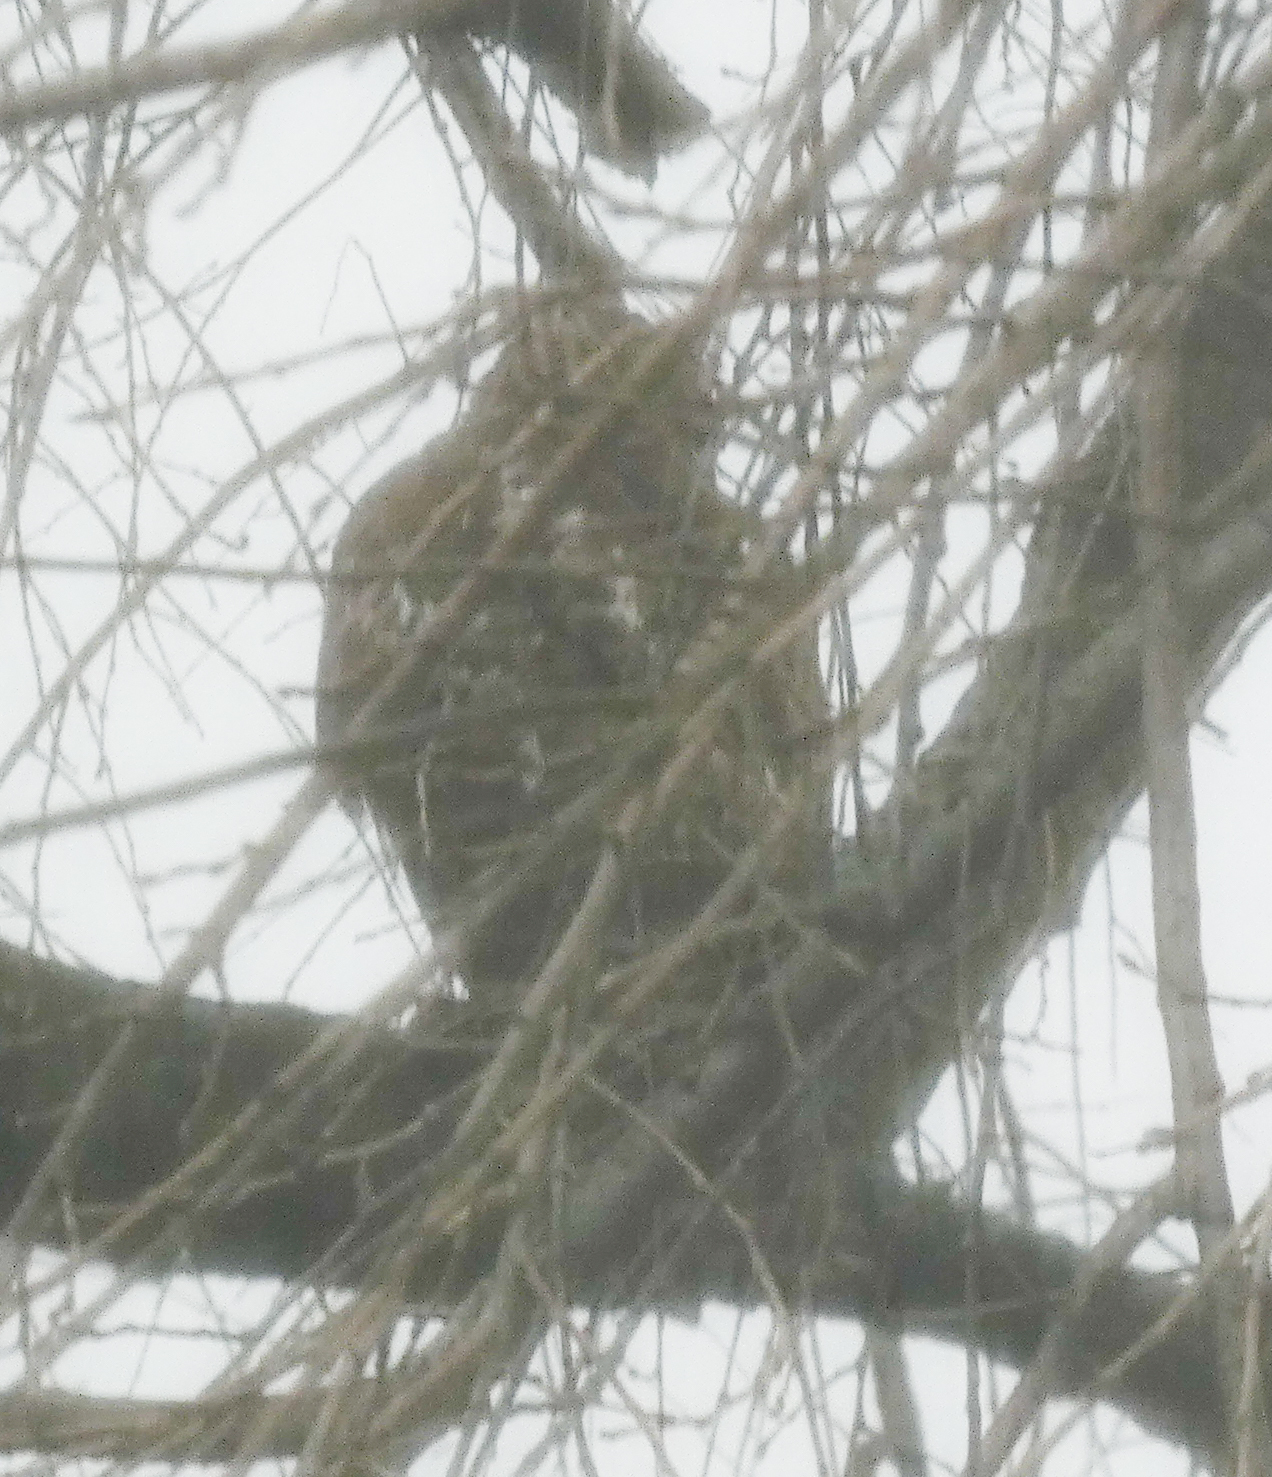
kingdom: Animalia
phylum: Chordata
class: Aves
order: Accipitriformes
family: Accipitridae
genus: Buteo
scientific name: Buteo jamaicensis
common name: Red-tailed hawk
